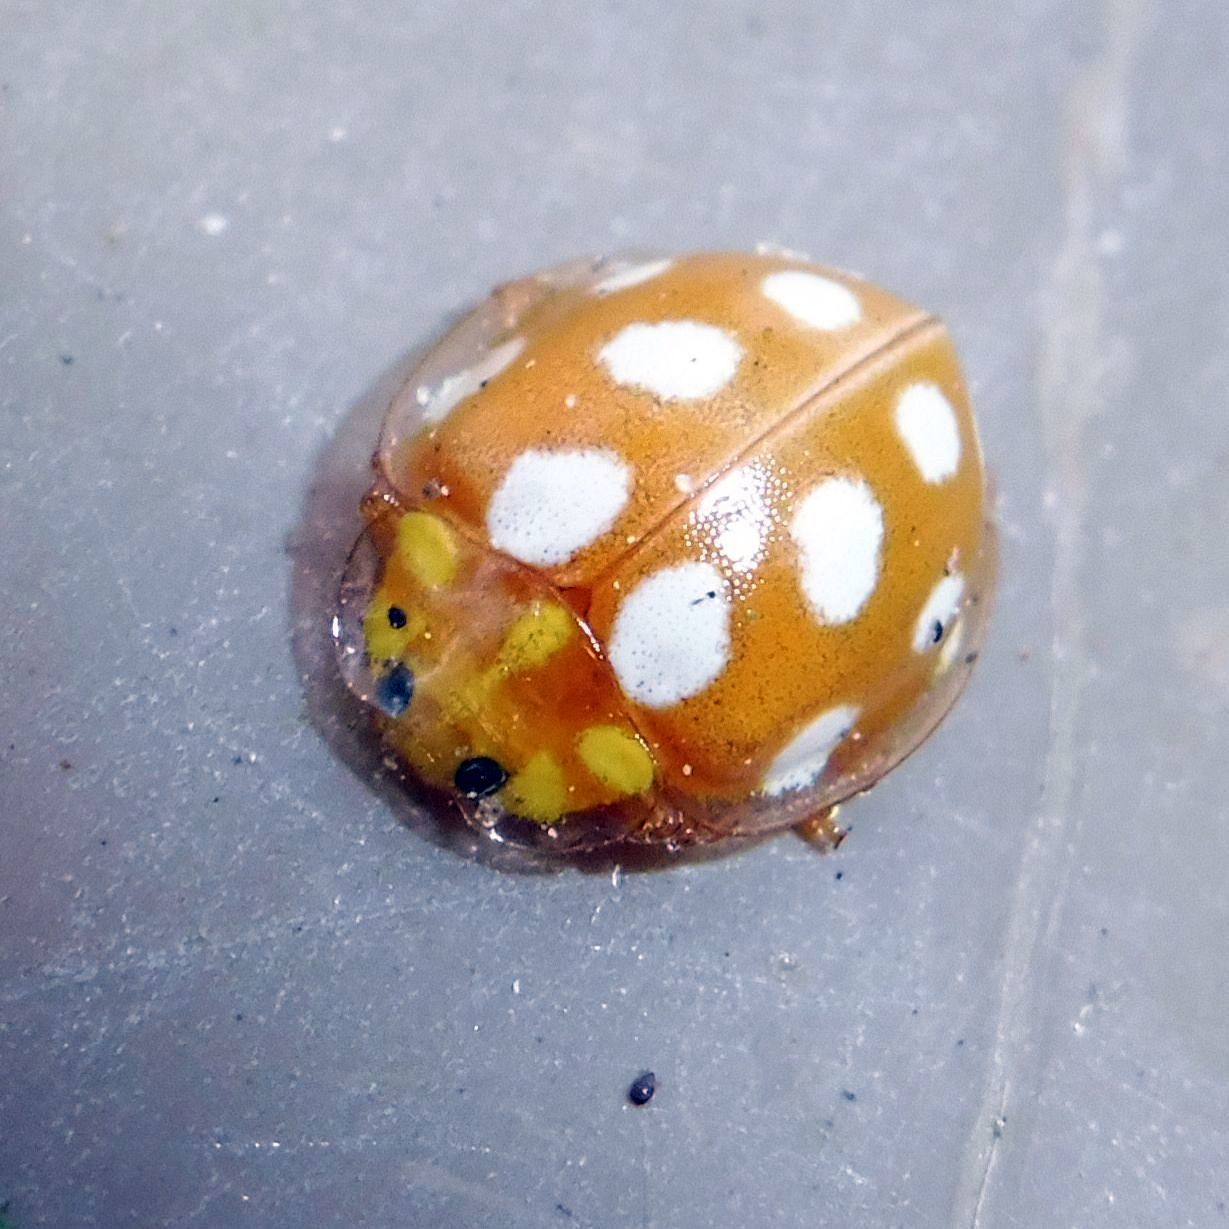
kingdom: Animalia
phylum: Arthropoda
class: Insecta
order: Coleoptera
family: Coccinellidae
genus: Halyzia
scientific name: Halyzia sedecimguttata
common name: Orange ladybird
